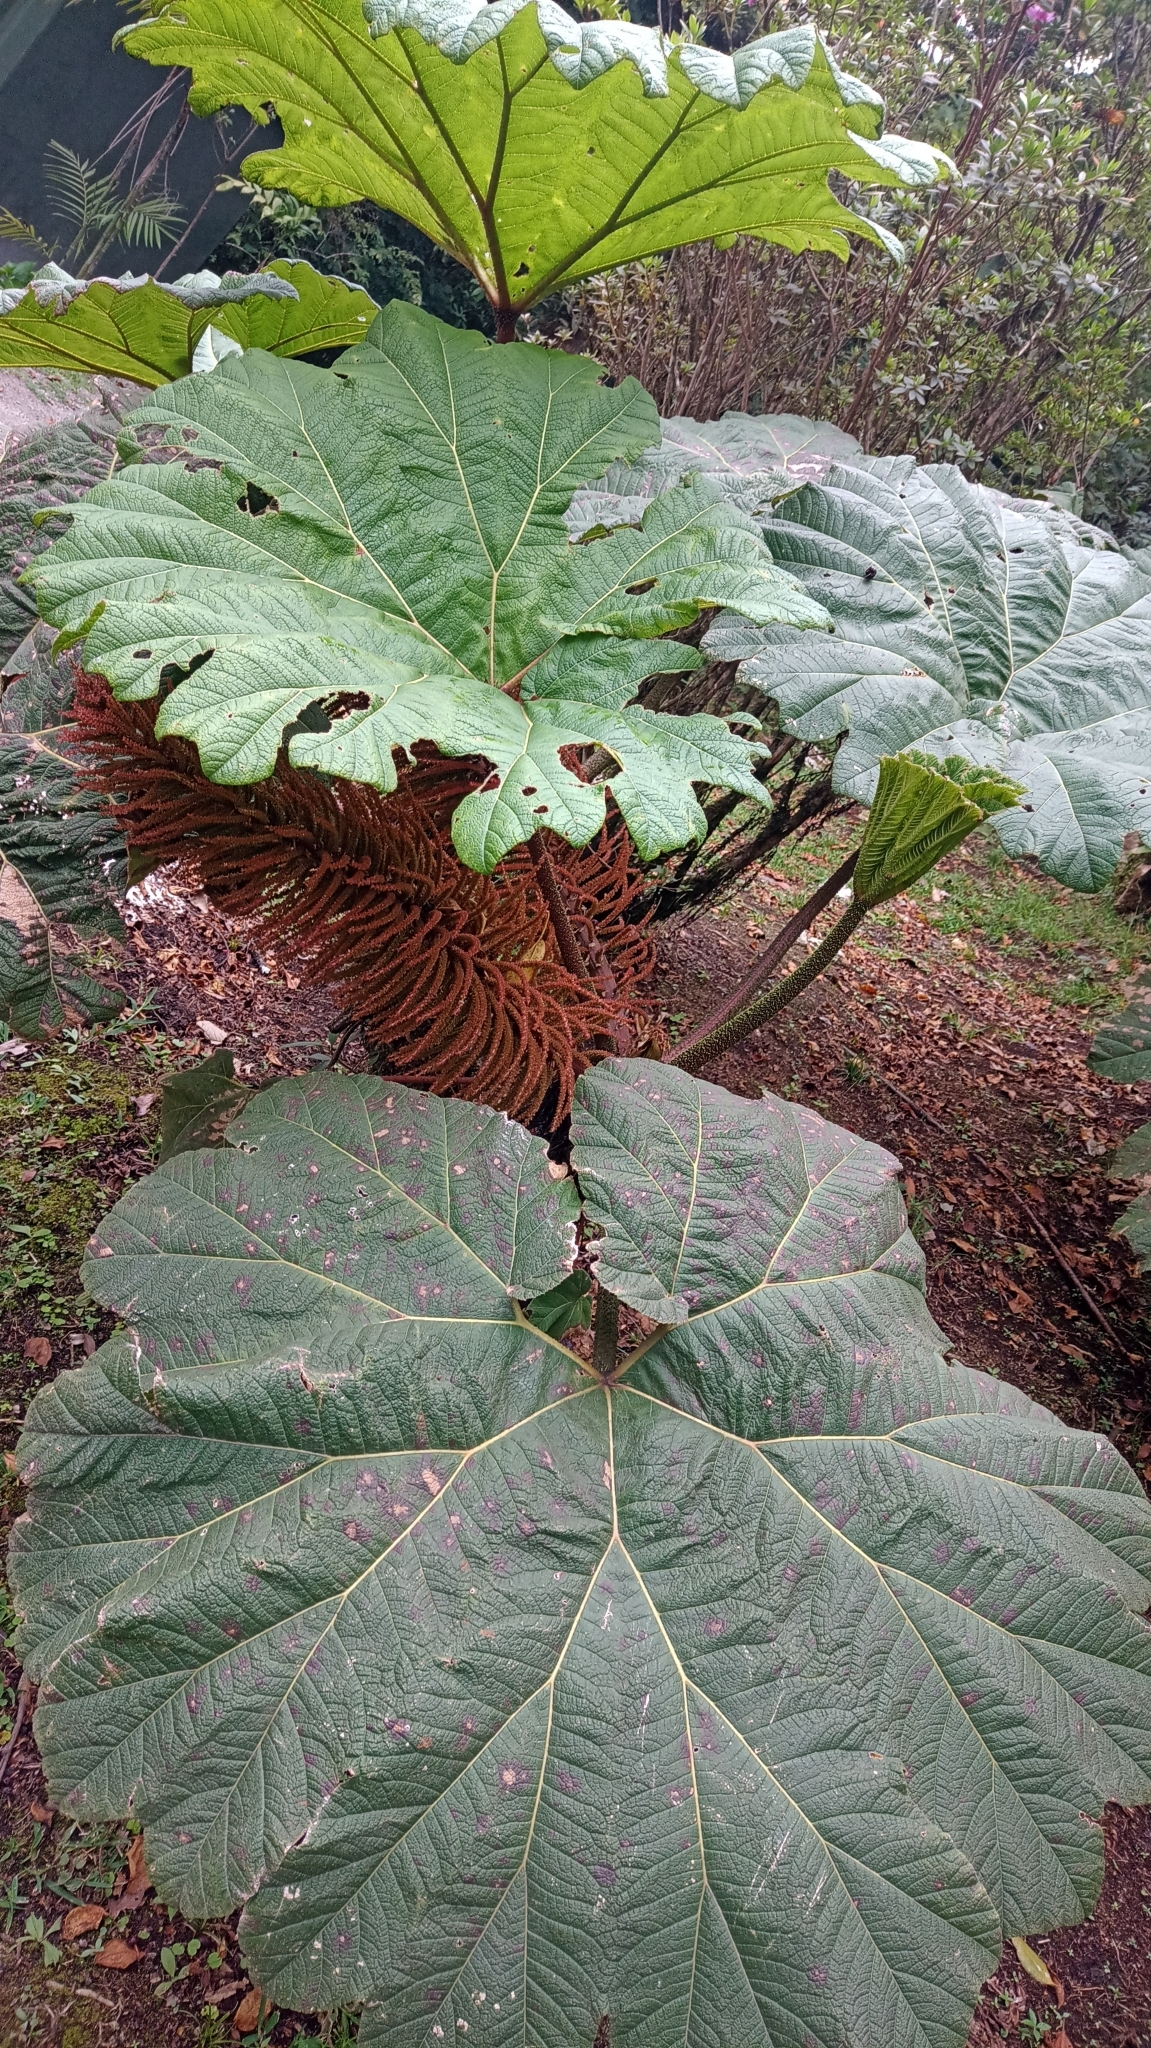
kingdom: Plantae
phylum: Tracheophyta
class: Magnoliopsida
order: Gunnerales
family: Gunneraceae
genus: Gunnera
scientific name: Gunnera insignis
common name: Poorman's umbrella
